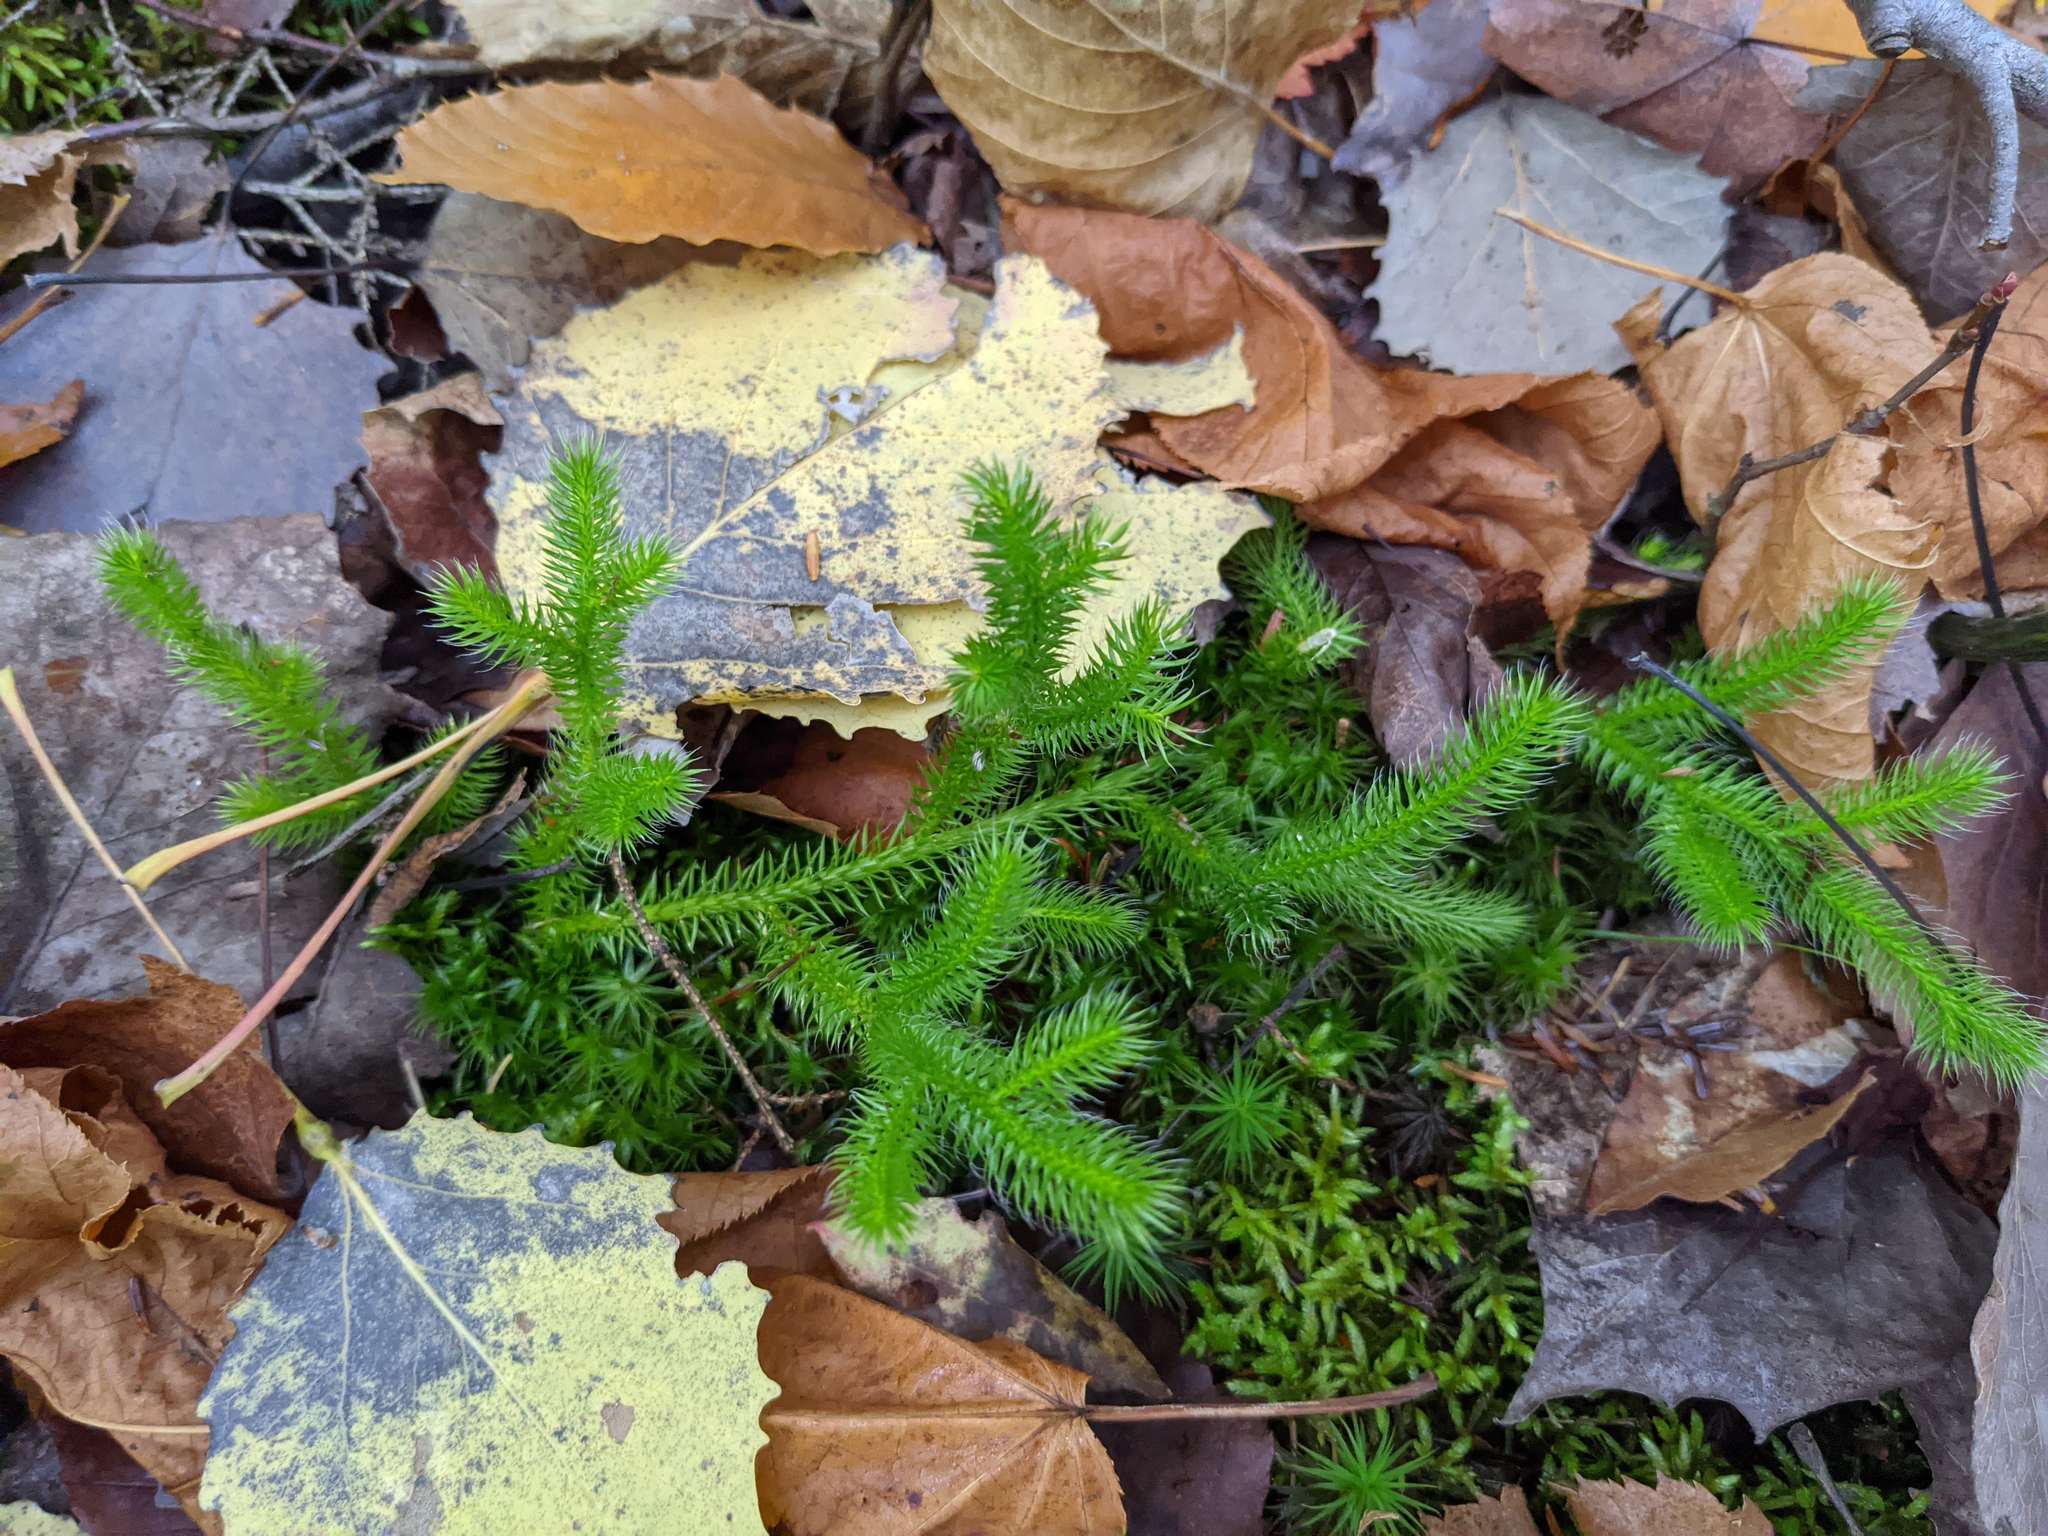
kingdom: Plantae
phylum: Tracheophyta
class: Lycopodiopsida
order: Lycopodiales
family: Lycopodiaceae
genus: Lycopodium
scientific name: Lycopodium clavatum
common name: Stag's-horn clubmoss
